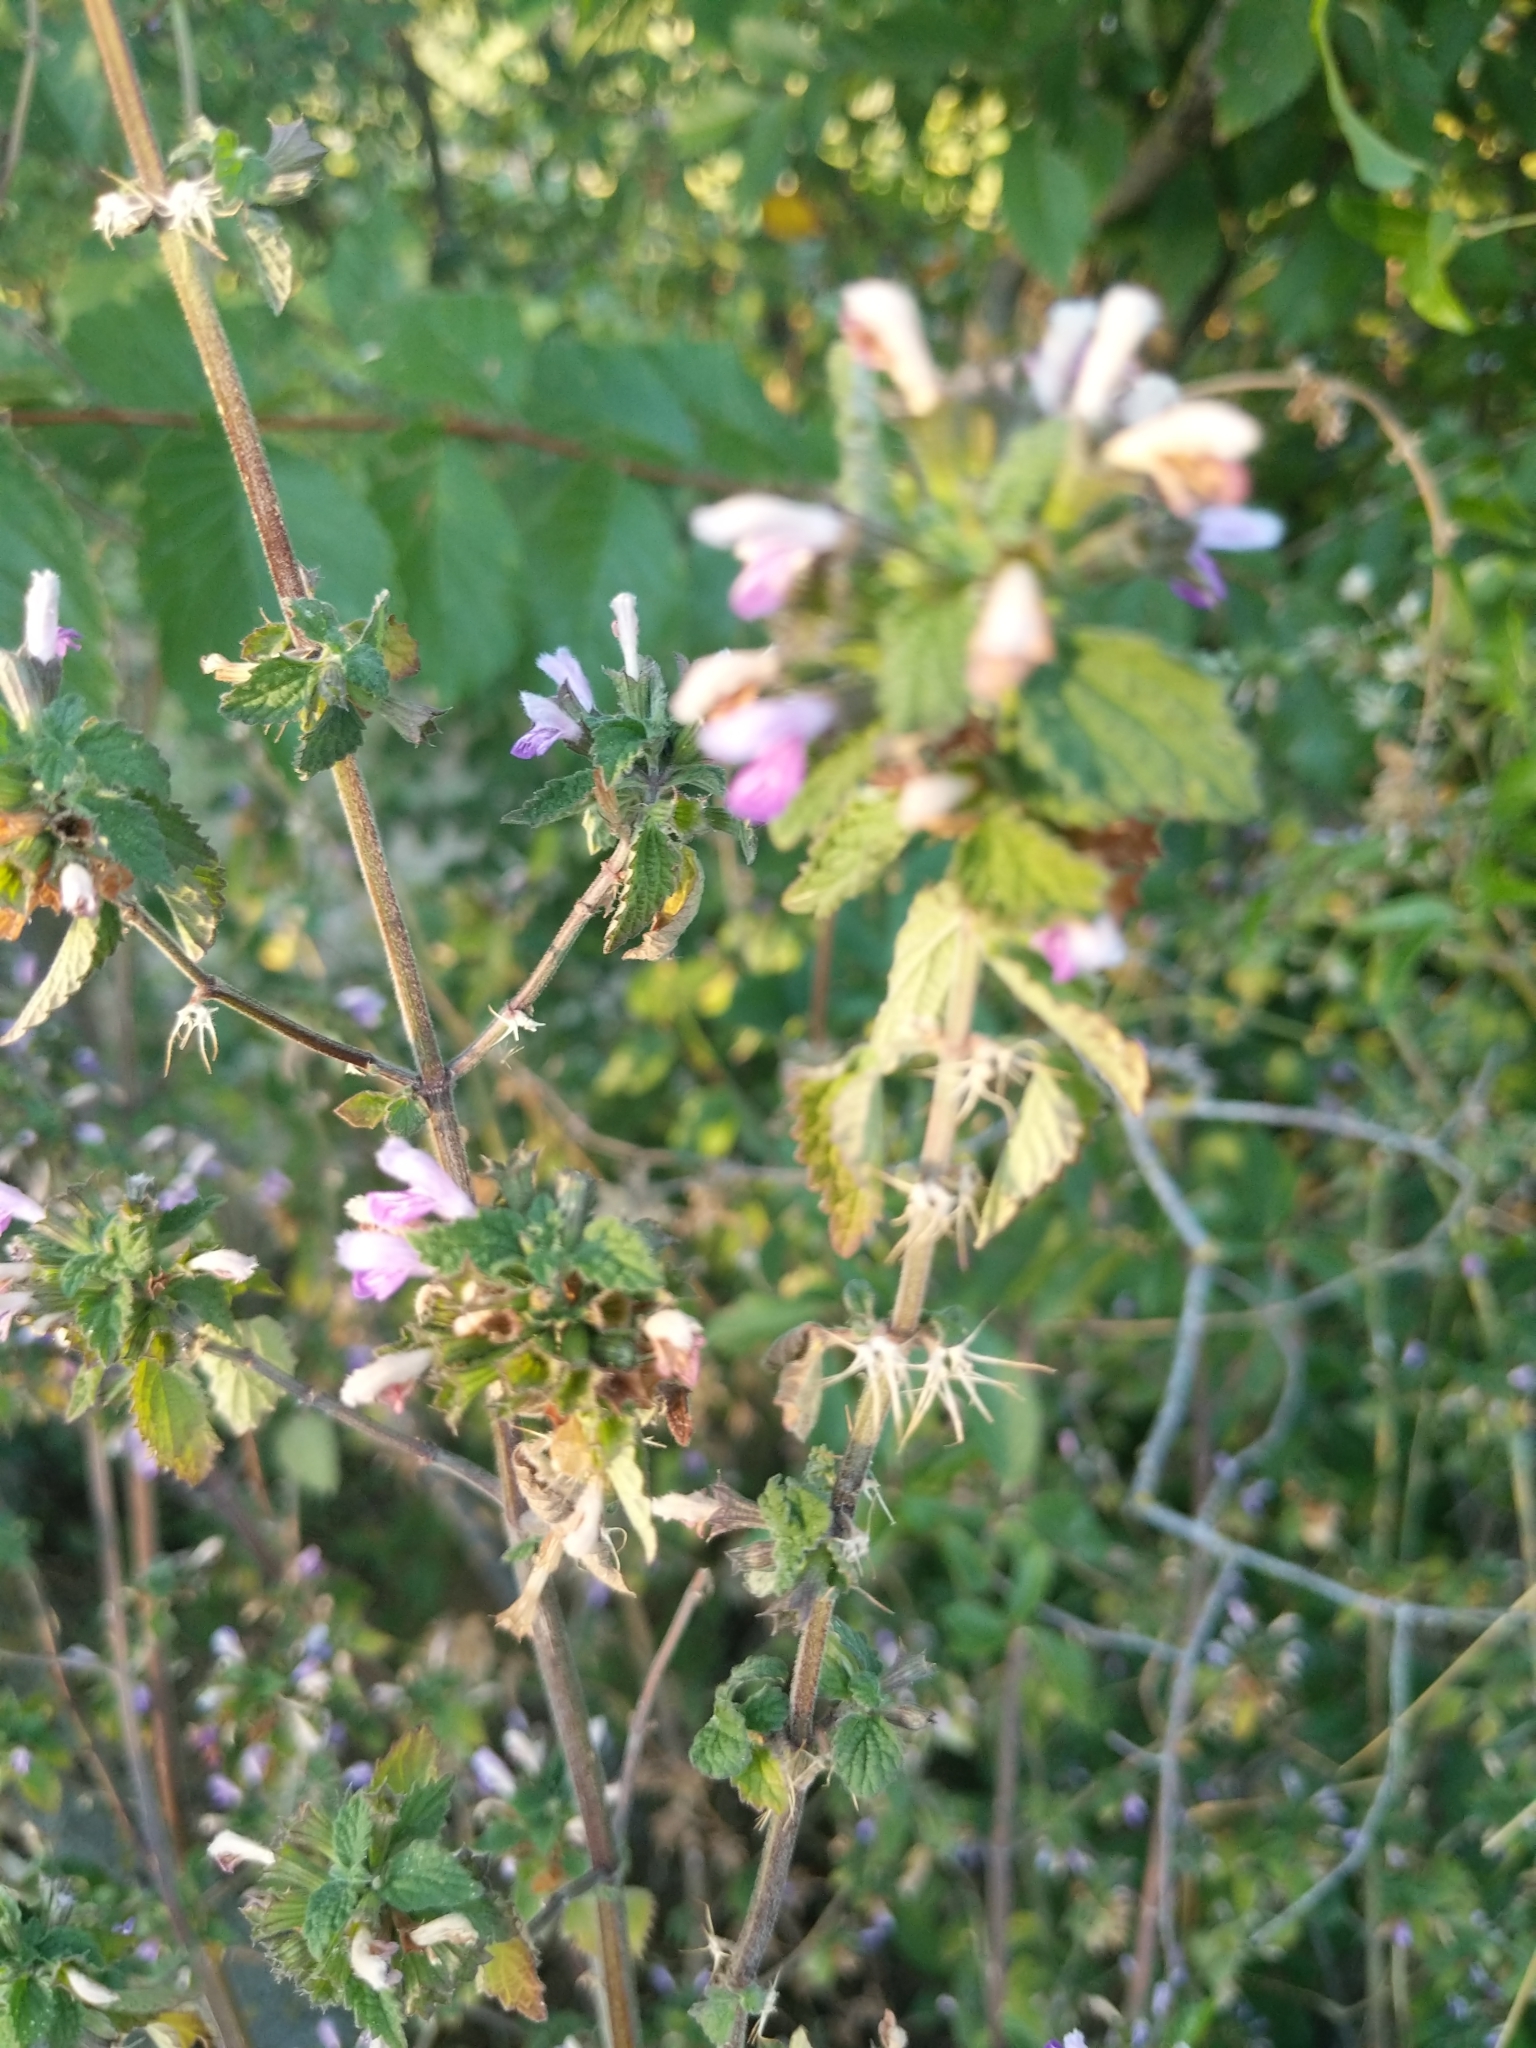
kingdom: Plantae
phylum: Tracheophyta
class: Magnoliopsida
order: Lamiales
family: Lamiaceae
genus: Ballota
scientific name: Ballota nigra
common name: Black horehound
